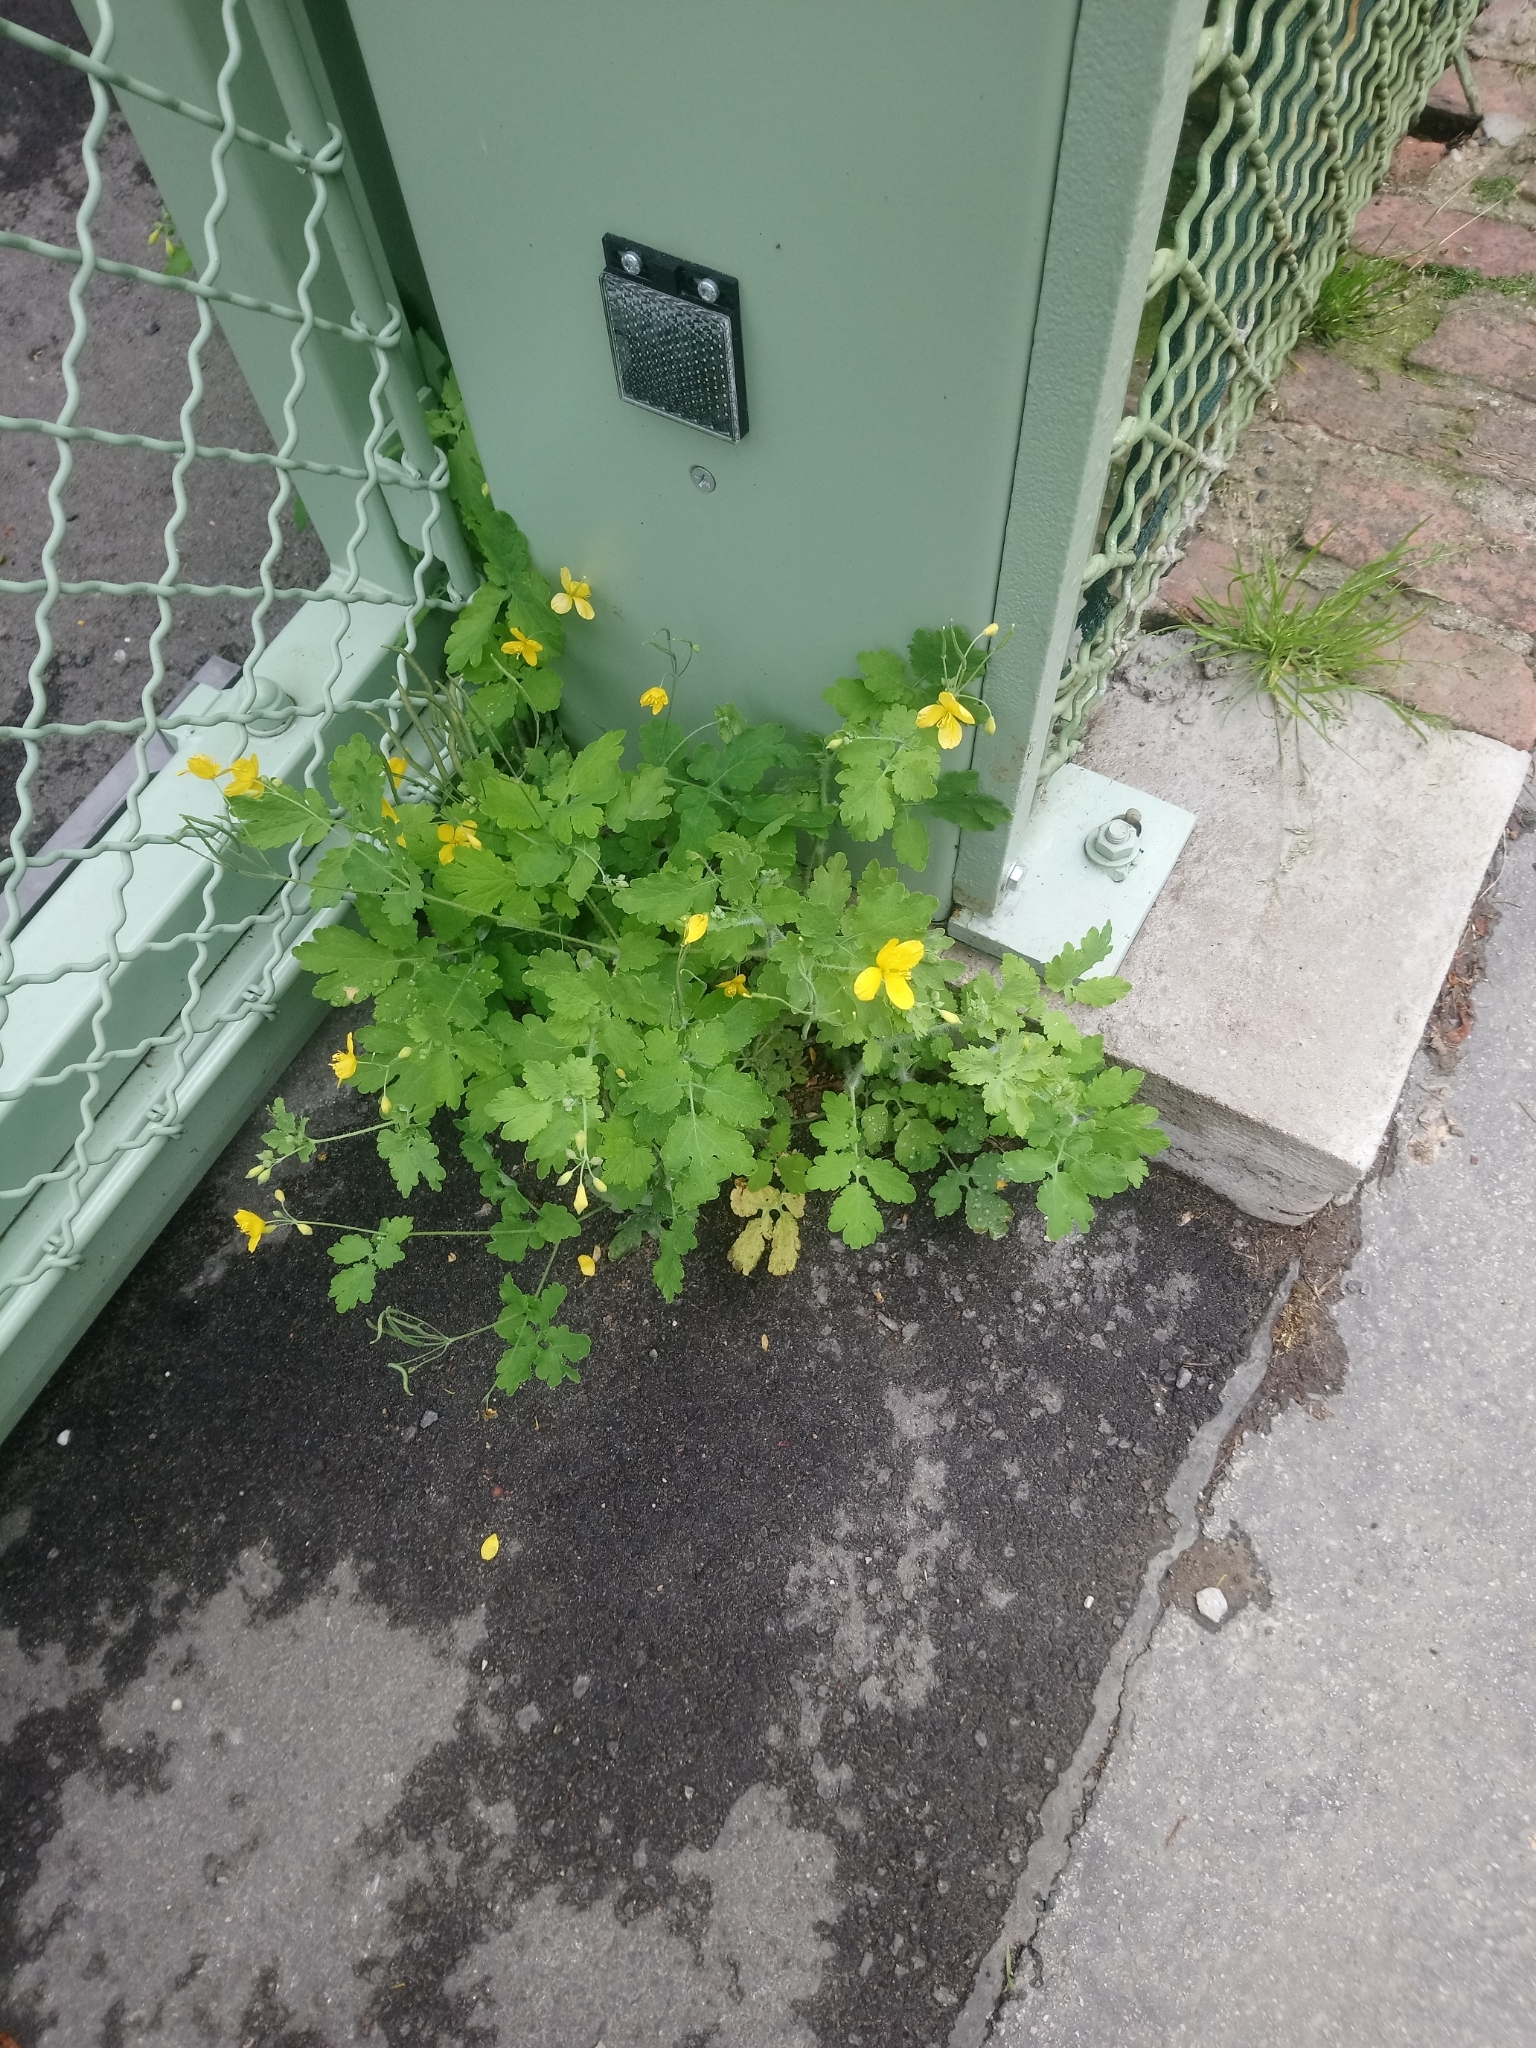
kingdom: Plantae
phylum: Tracheophyta
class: Magnoliopsida
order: Ranunculales
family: Papaveraceae
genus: Chelidonium
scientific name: Chelidonium majus
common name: Greater celandine
